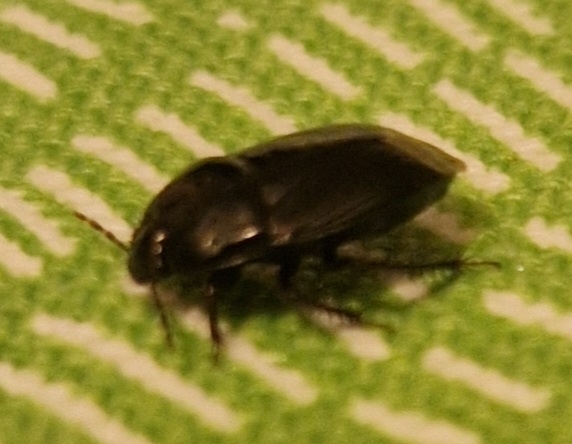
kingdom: Animalia
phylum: Arthropoda
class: Insecta
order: Hemiptera
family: Cydnidae
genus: Macroscytus
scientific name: Macroscytus brunneus
